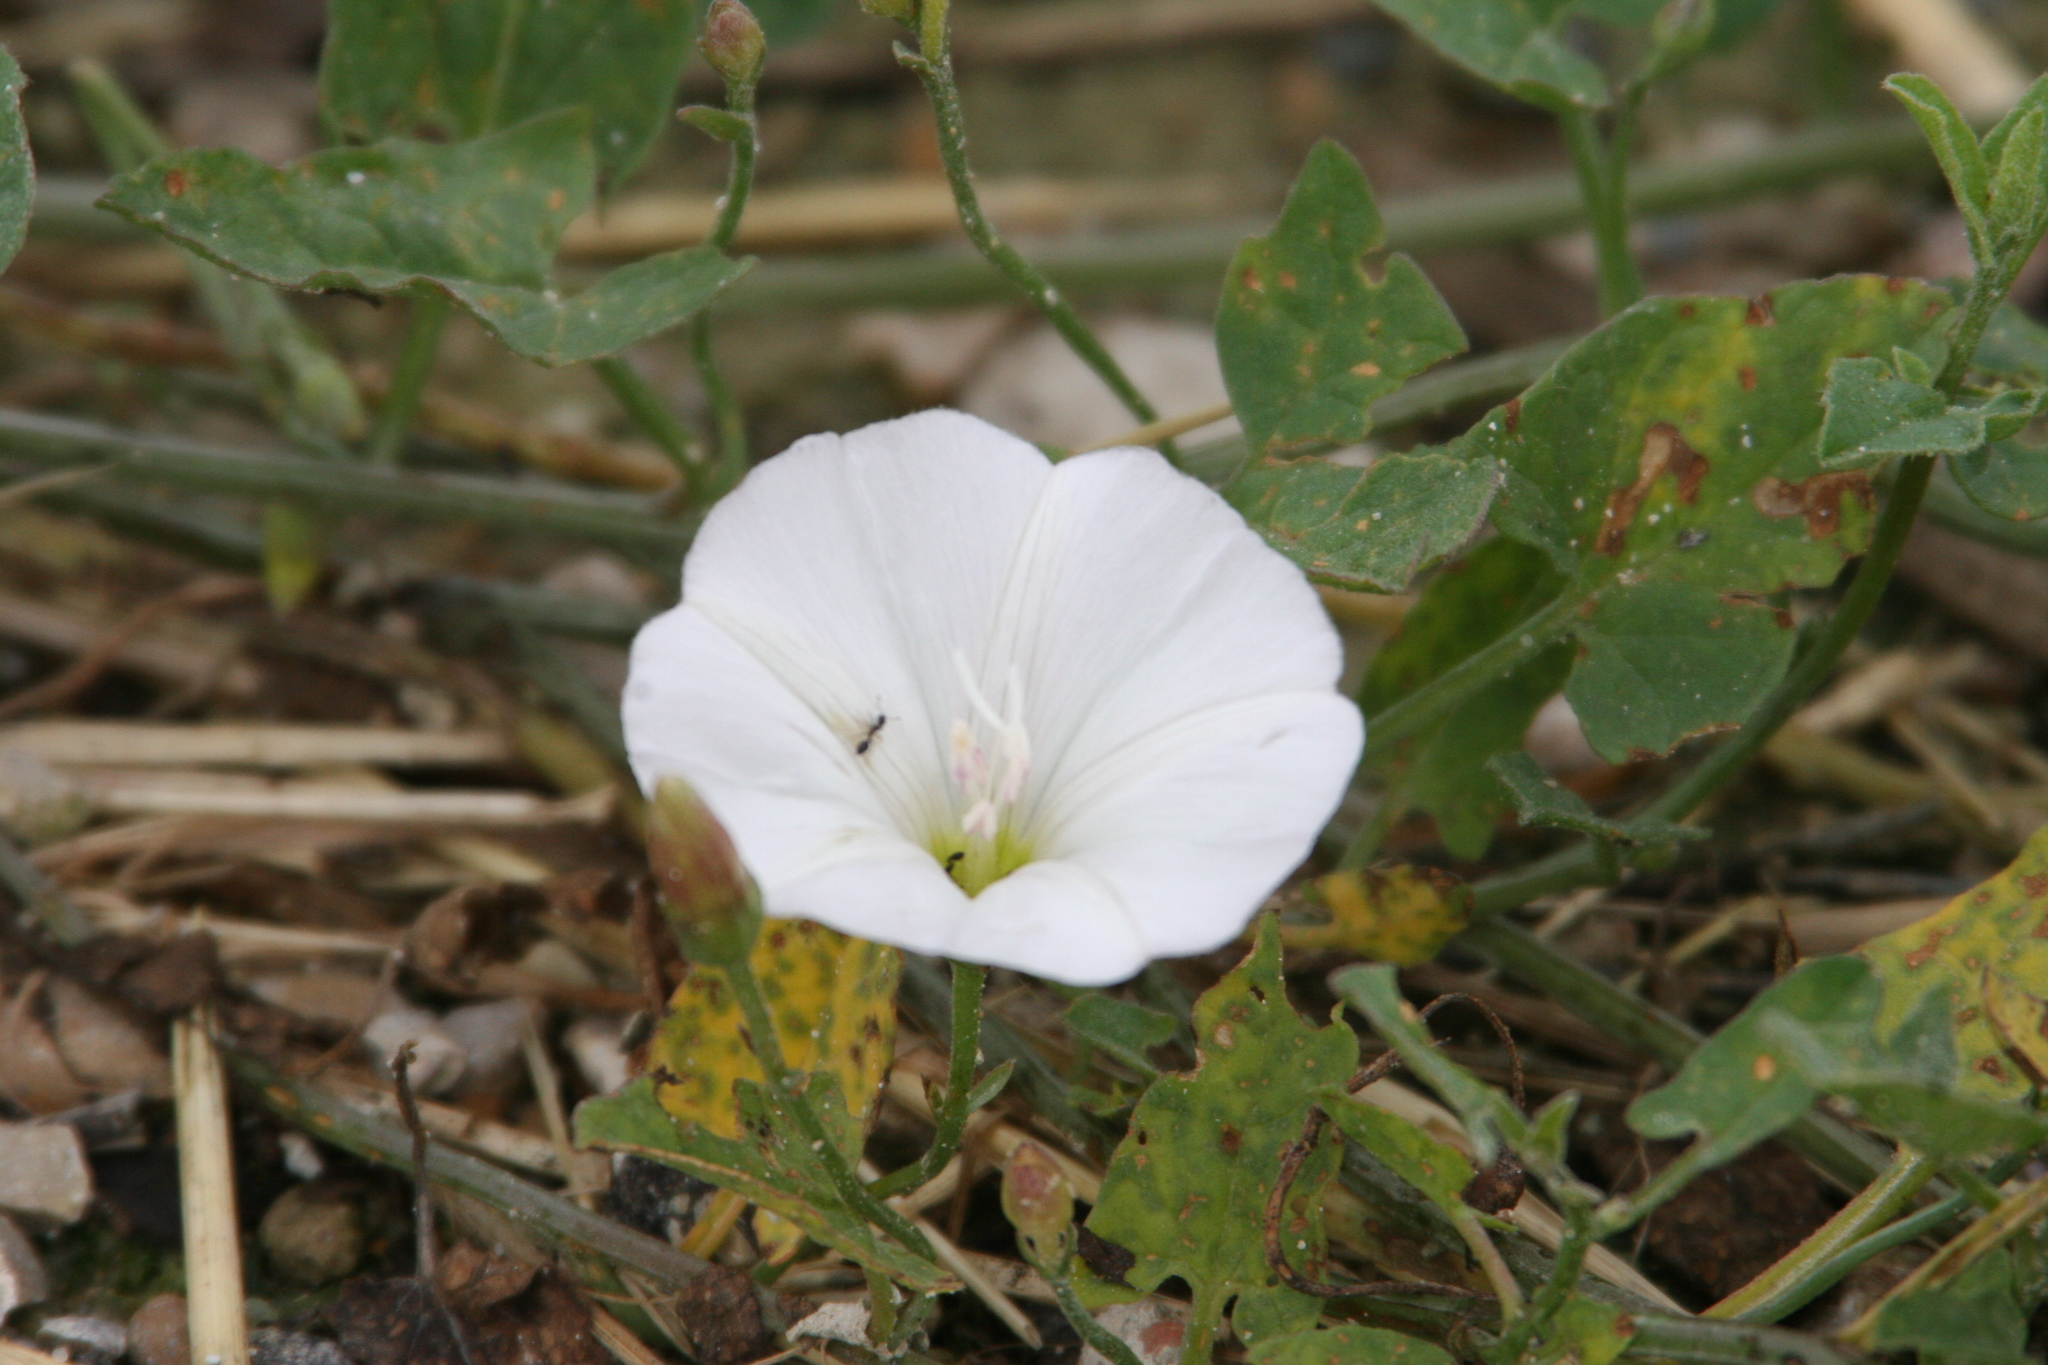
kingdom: Plantae
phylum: Tracheophyta
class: Magnoliopsida
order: Solanales
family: Convolvulaceae
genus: Convolvulus
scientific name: Convolvulus arvensis
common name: Field bindweed
